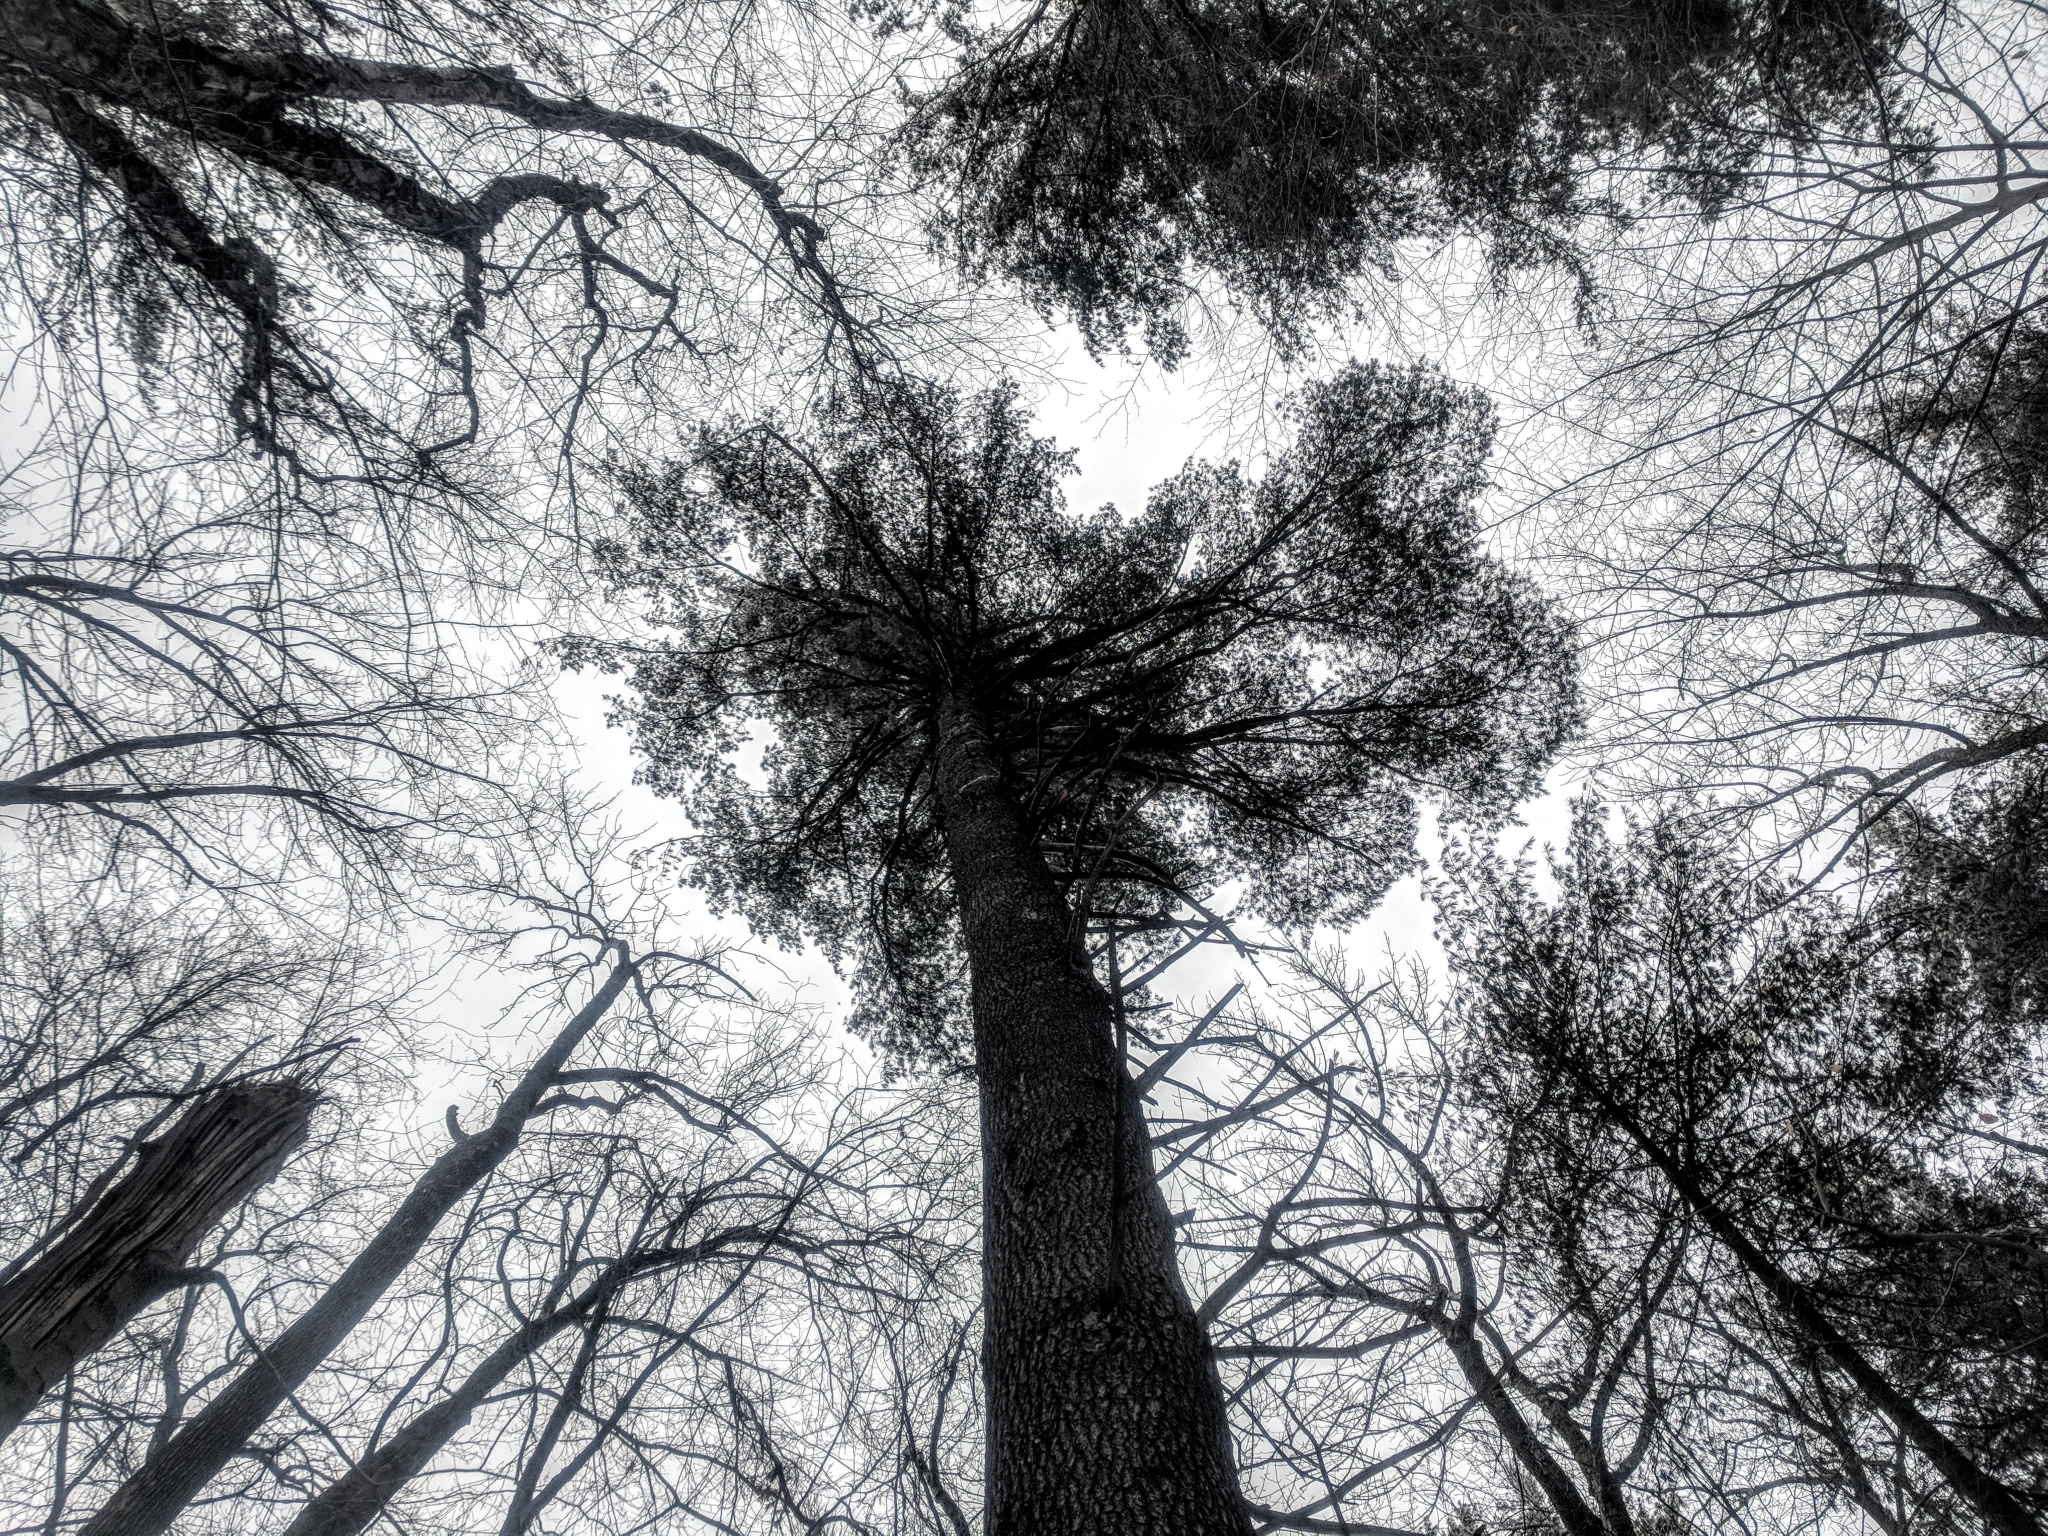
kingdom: Plantae
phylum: Tracheophyta
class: Pinopsida
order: Pinales
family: Pinaceae
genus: Pinus
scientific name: Pinus strobus
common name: Weymouth pine
